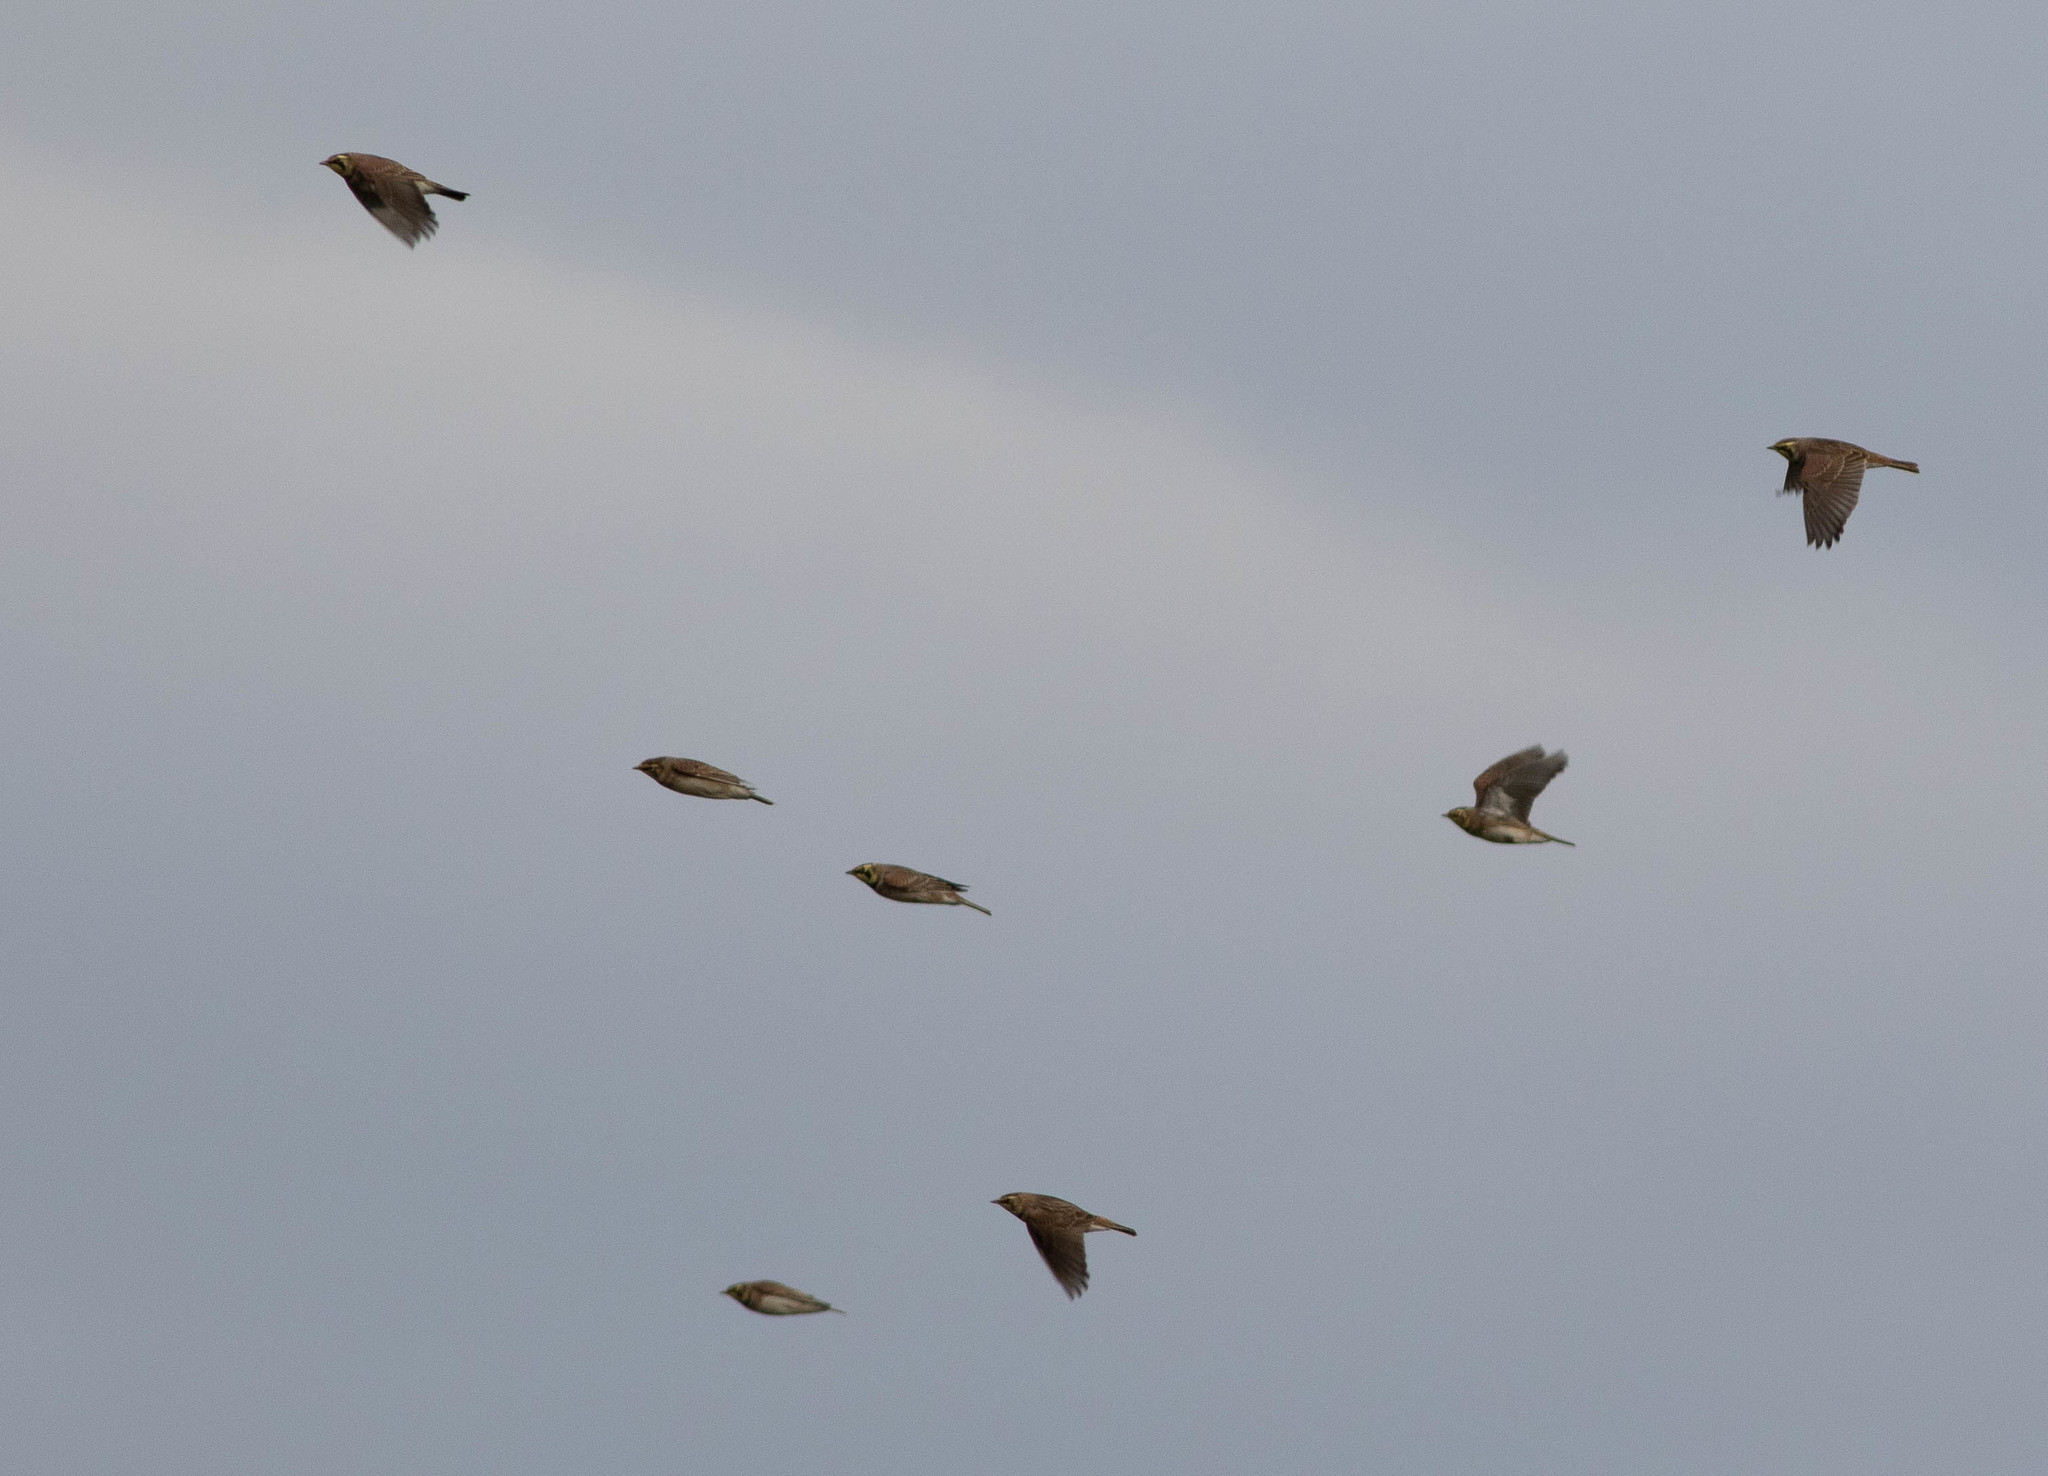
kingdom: Animalia
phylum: Chordata
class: Aves
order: Passeriformes
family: Alaudidae
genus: Eremophila
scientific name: Eremophila alpestris
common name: Horned lark
